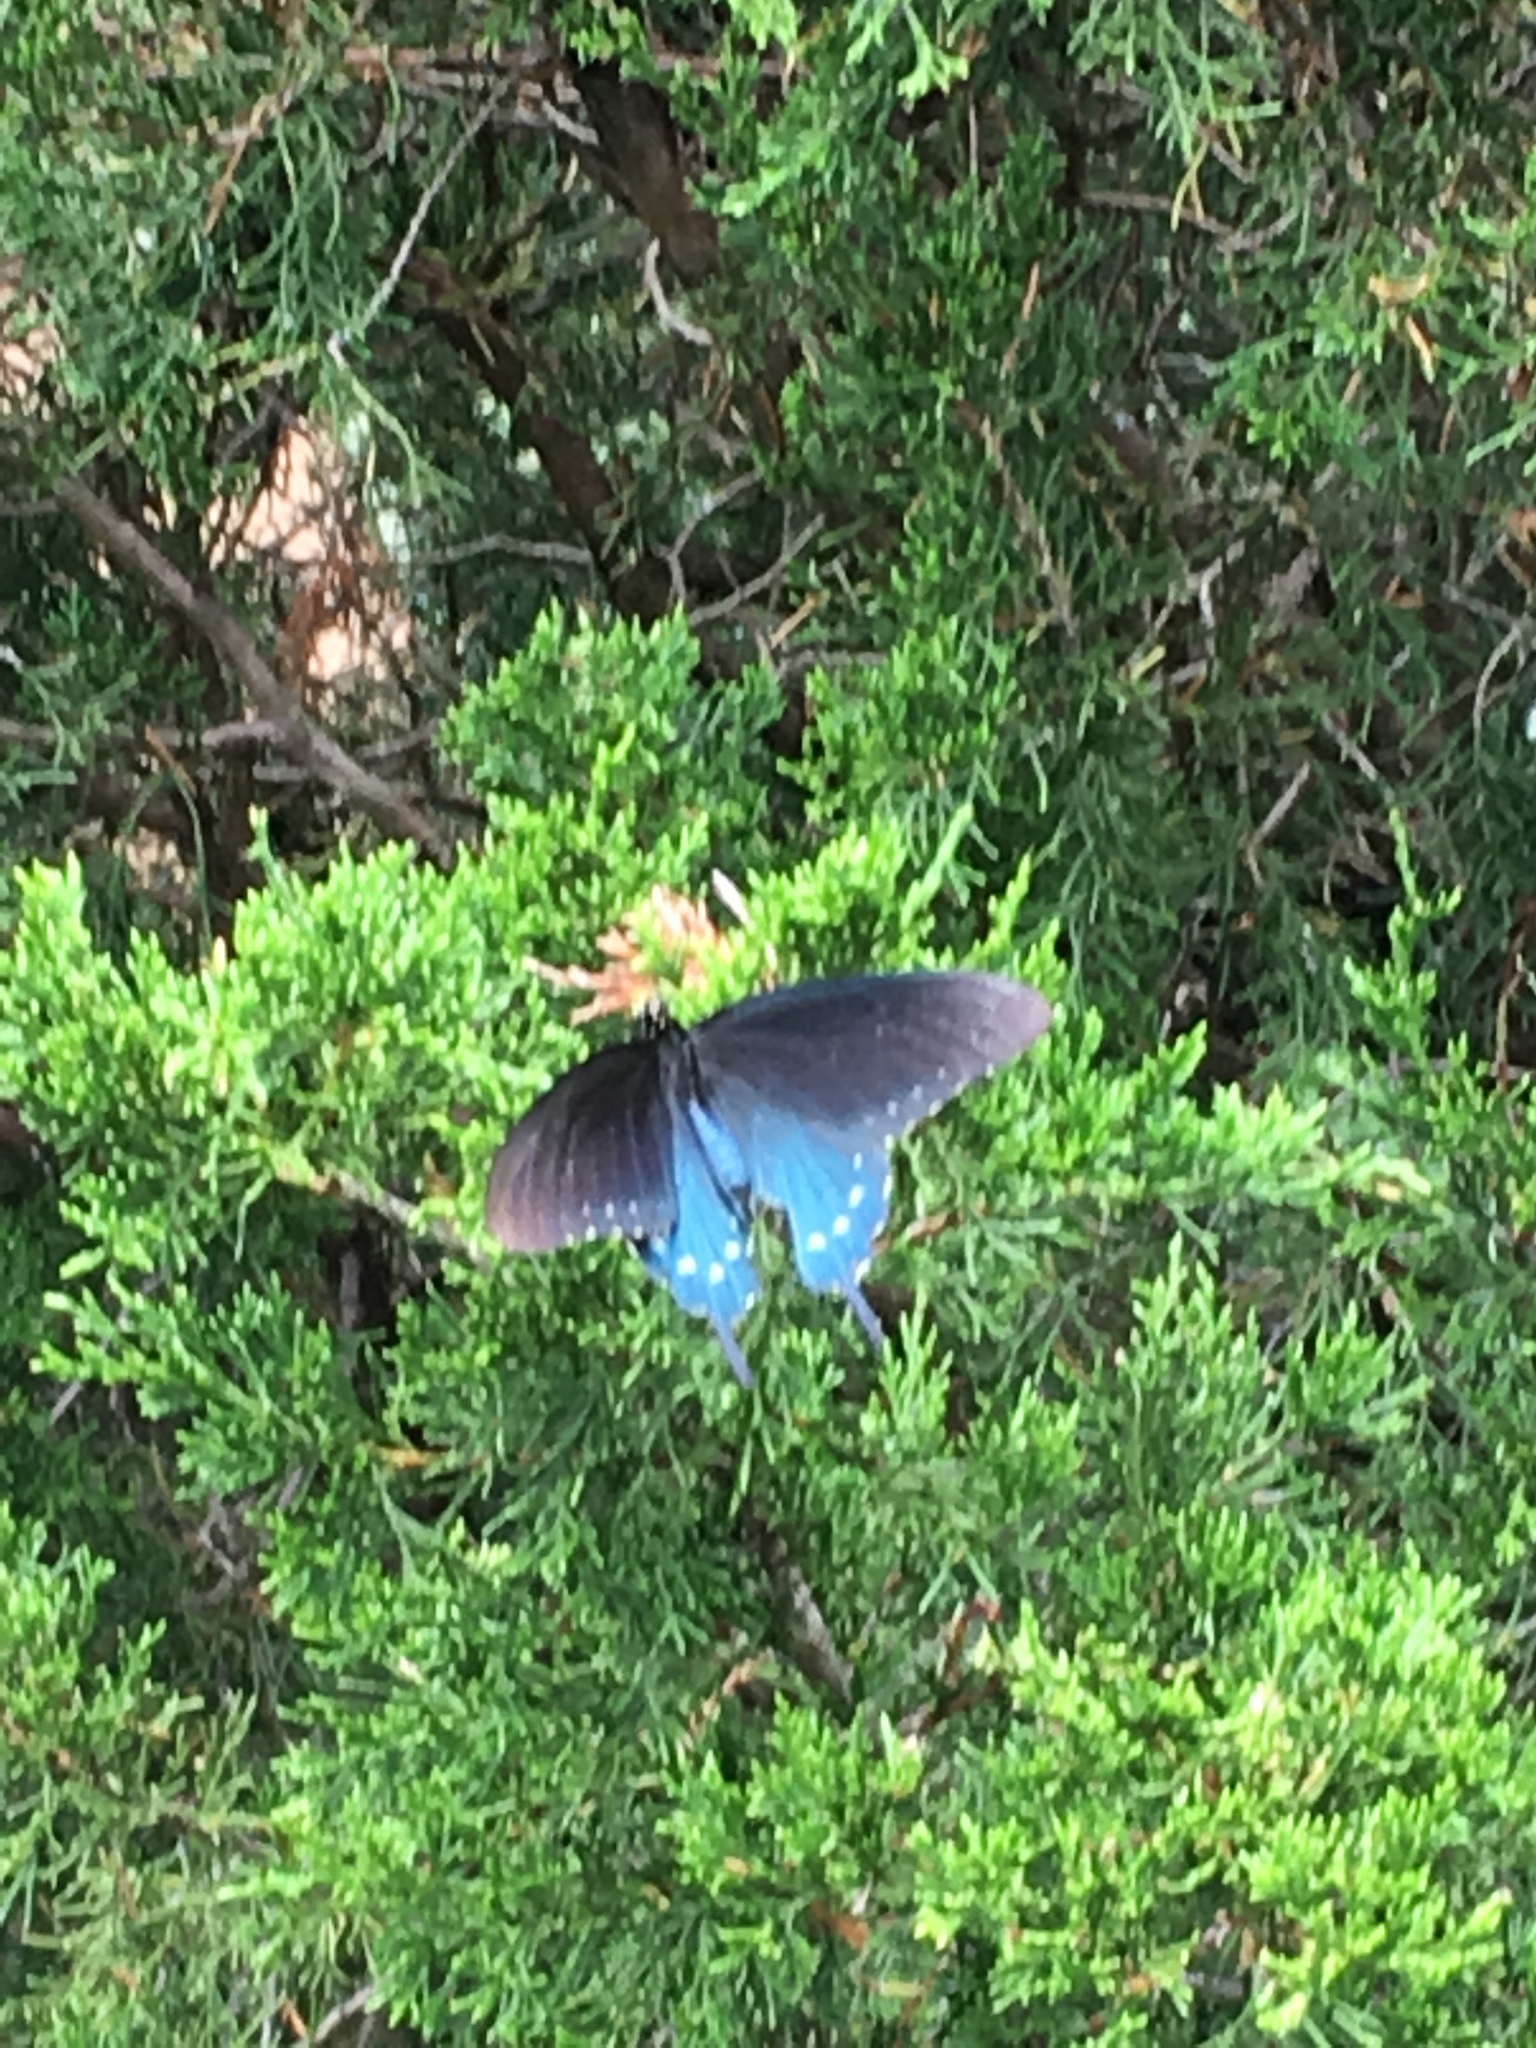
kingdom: Animalia
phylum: Arthropoda
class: Insecta
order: Lepidoptera
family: Papilionidae
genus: Battus
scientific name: Battus philenor
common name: Pipevine swallowtail
